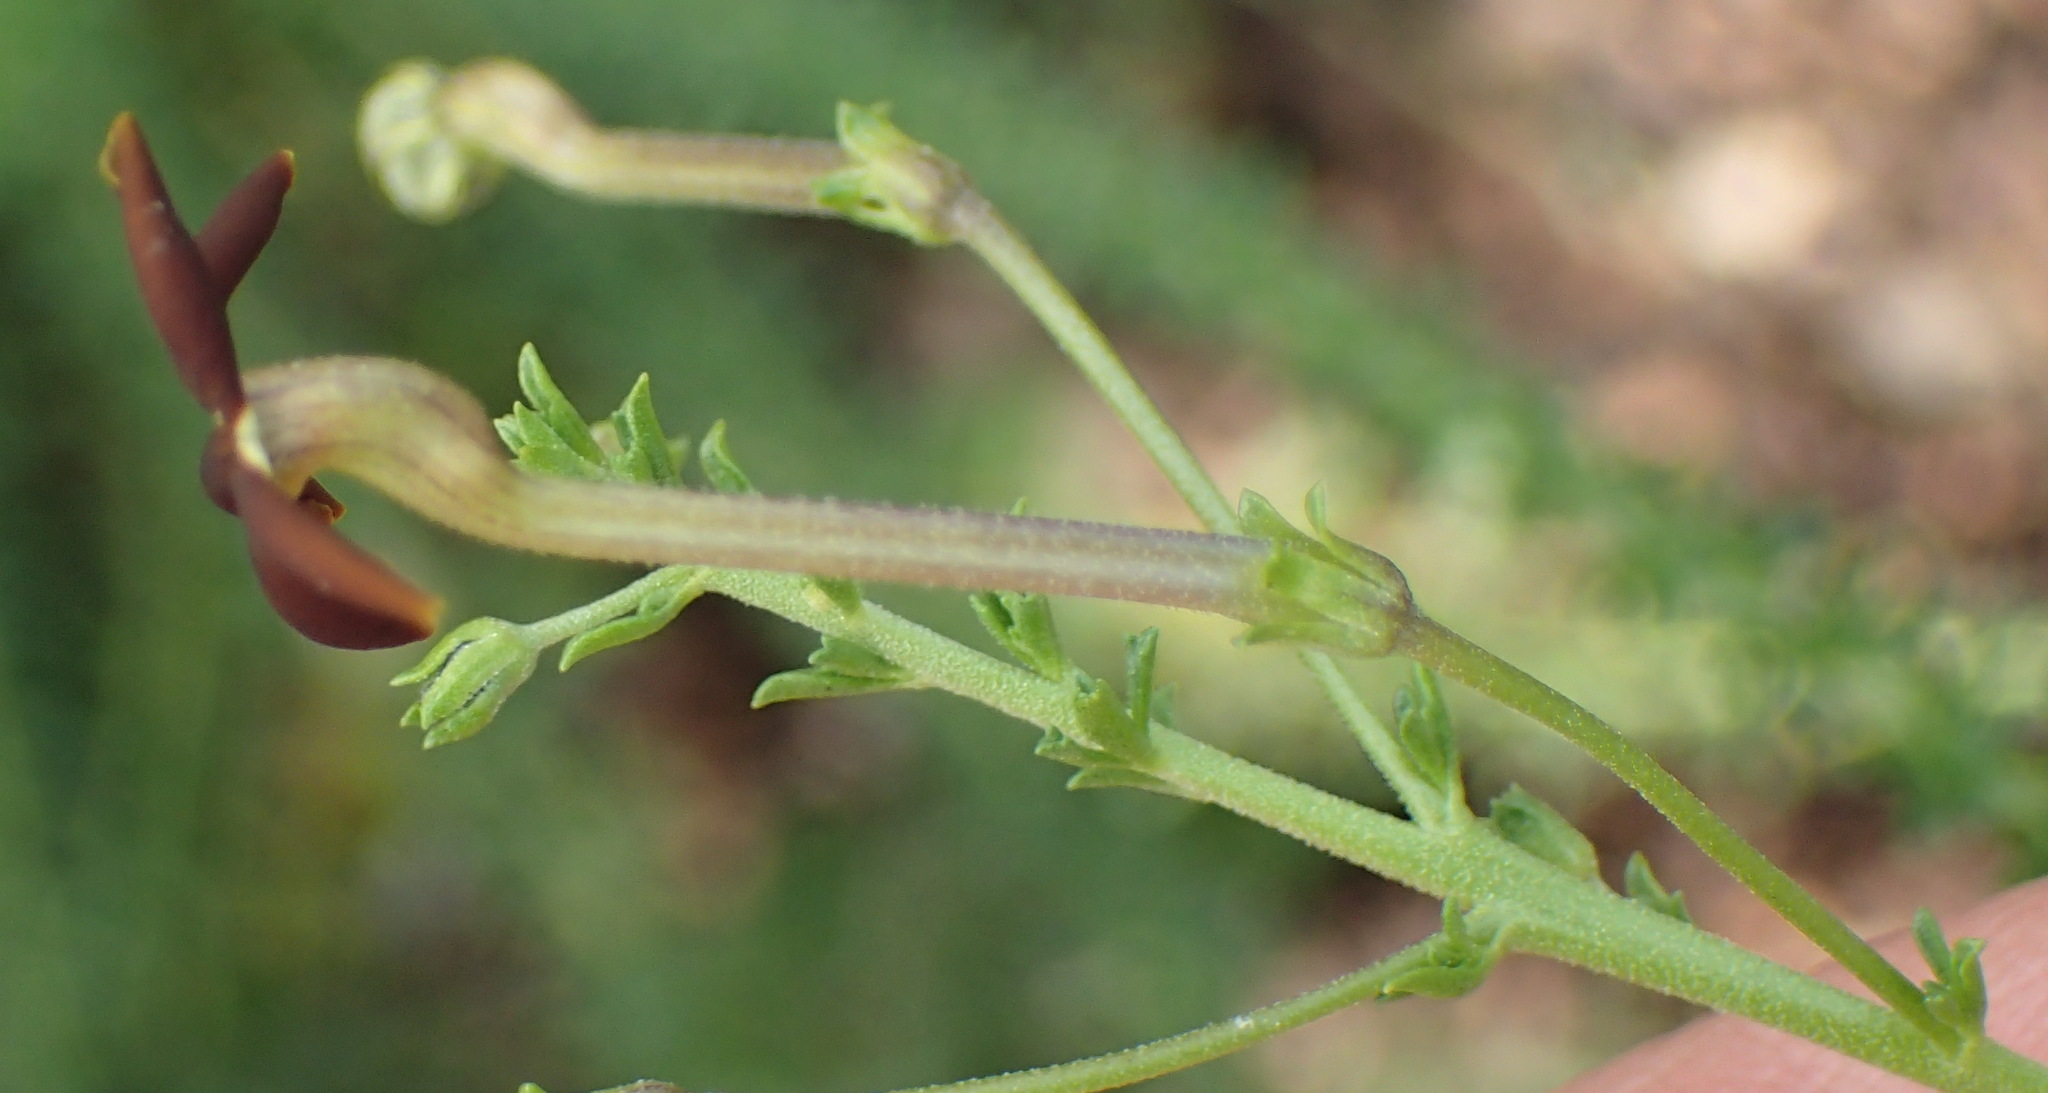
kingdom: Plantae
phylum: Tracheophyta
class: Magnoliopsida
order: Lamiales
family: Scrophulariaceae
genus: Jamesbrittenia
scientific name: Jamesbrittenia burkeana
